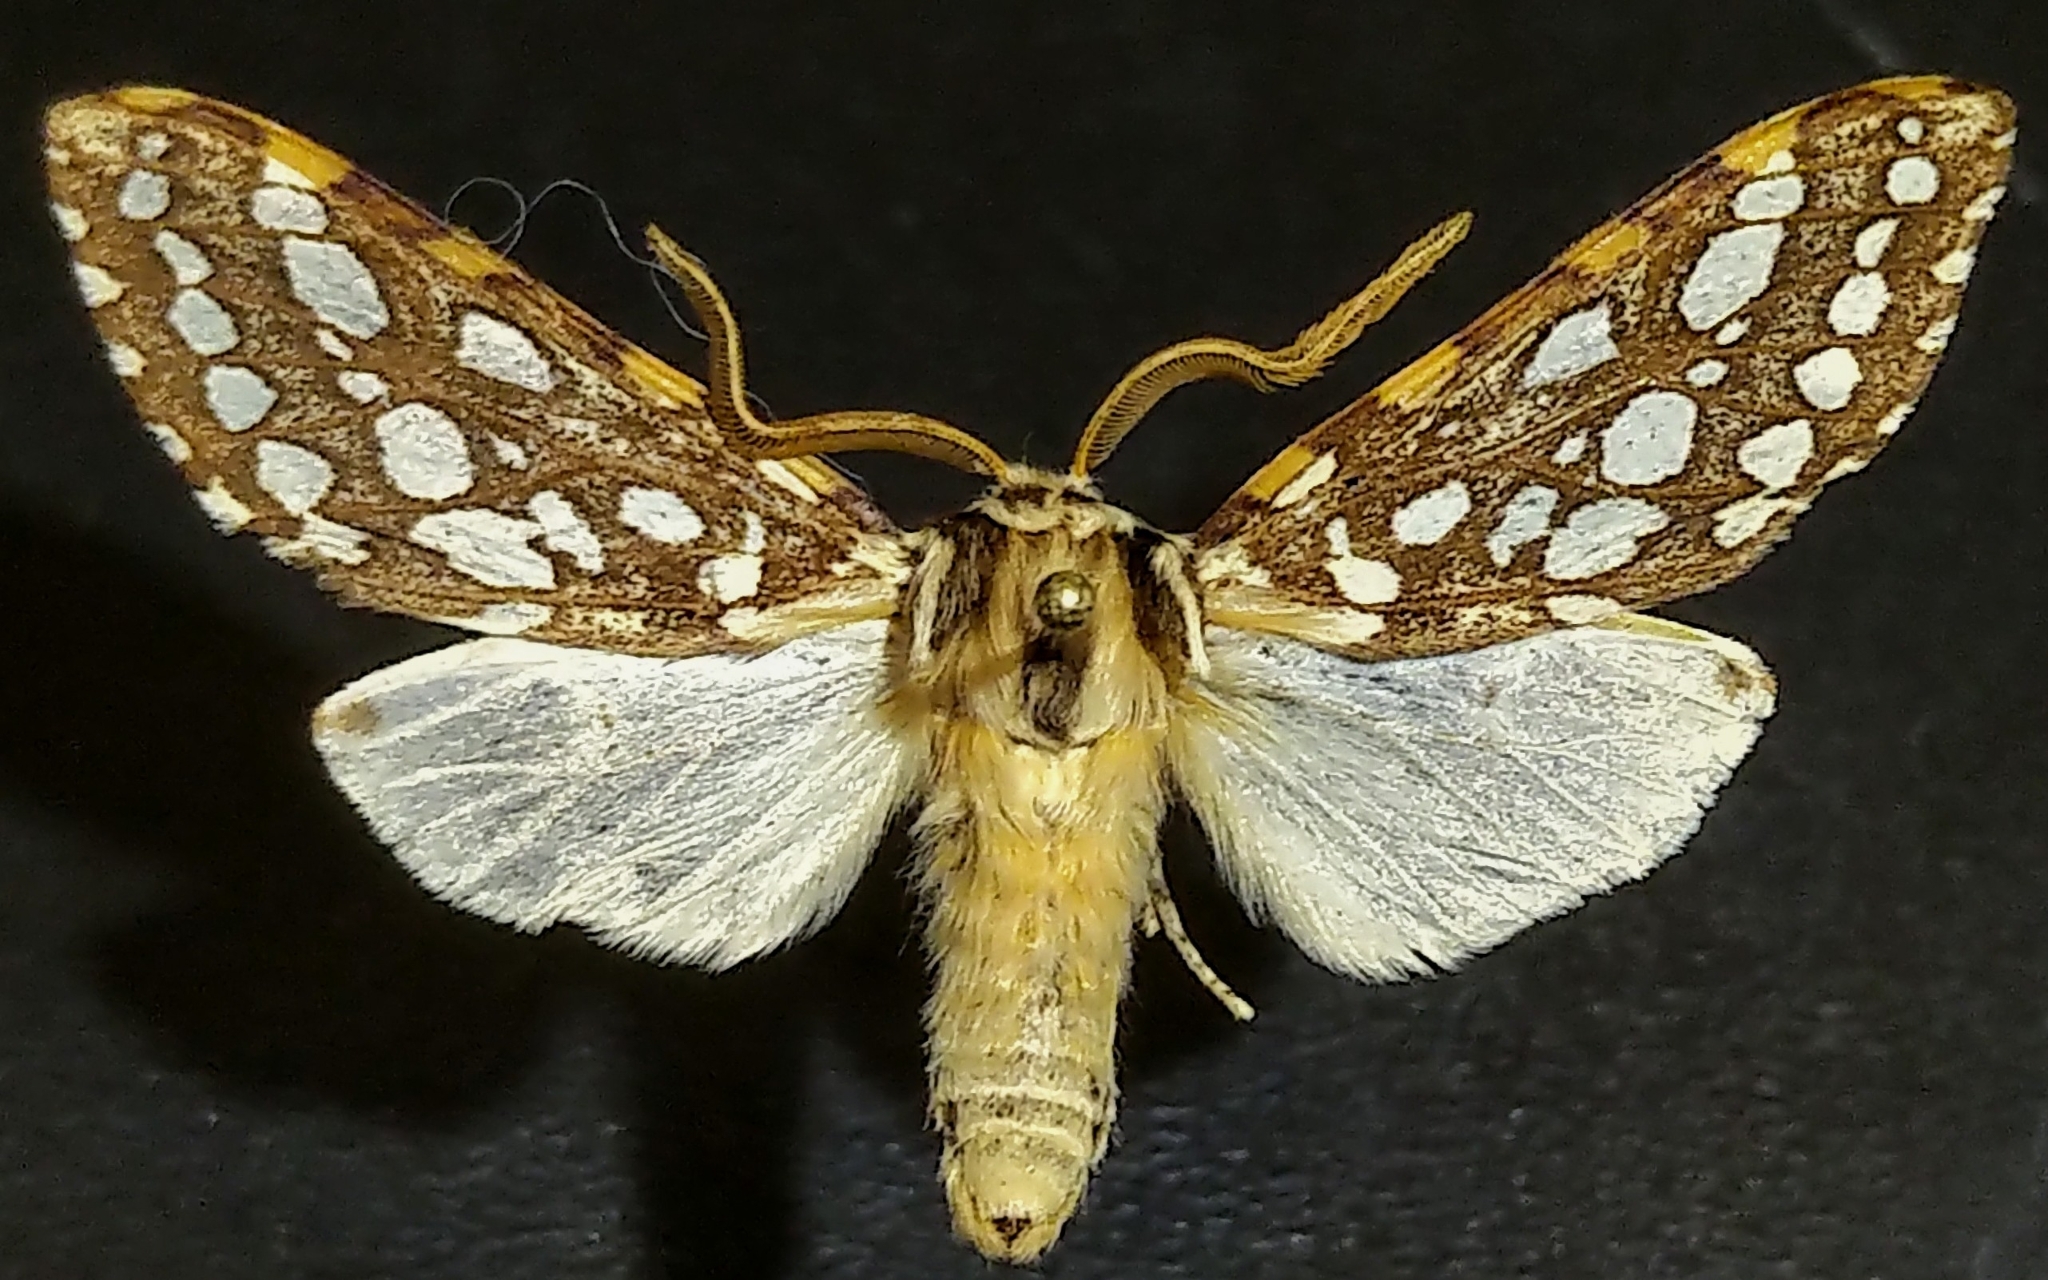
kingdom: Animalia
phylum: Arthropoda
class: Insecta
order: Lepidoptera
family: Erebidae
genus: Lophocampa
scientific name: Lophocampa argentata
